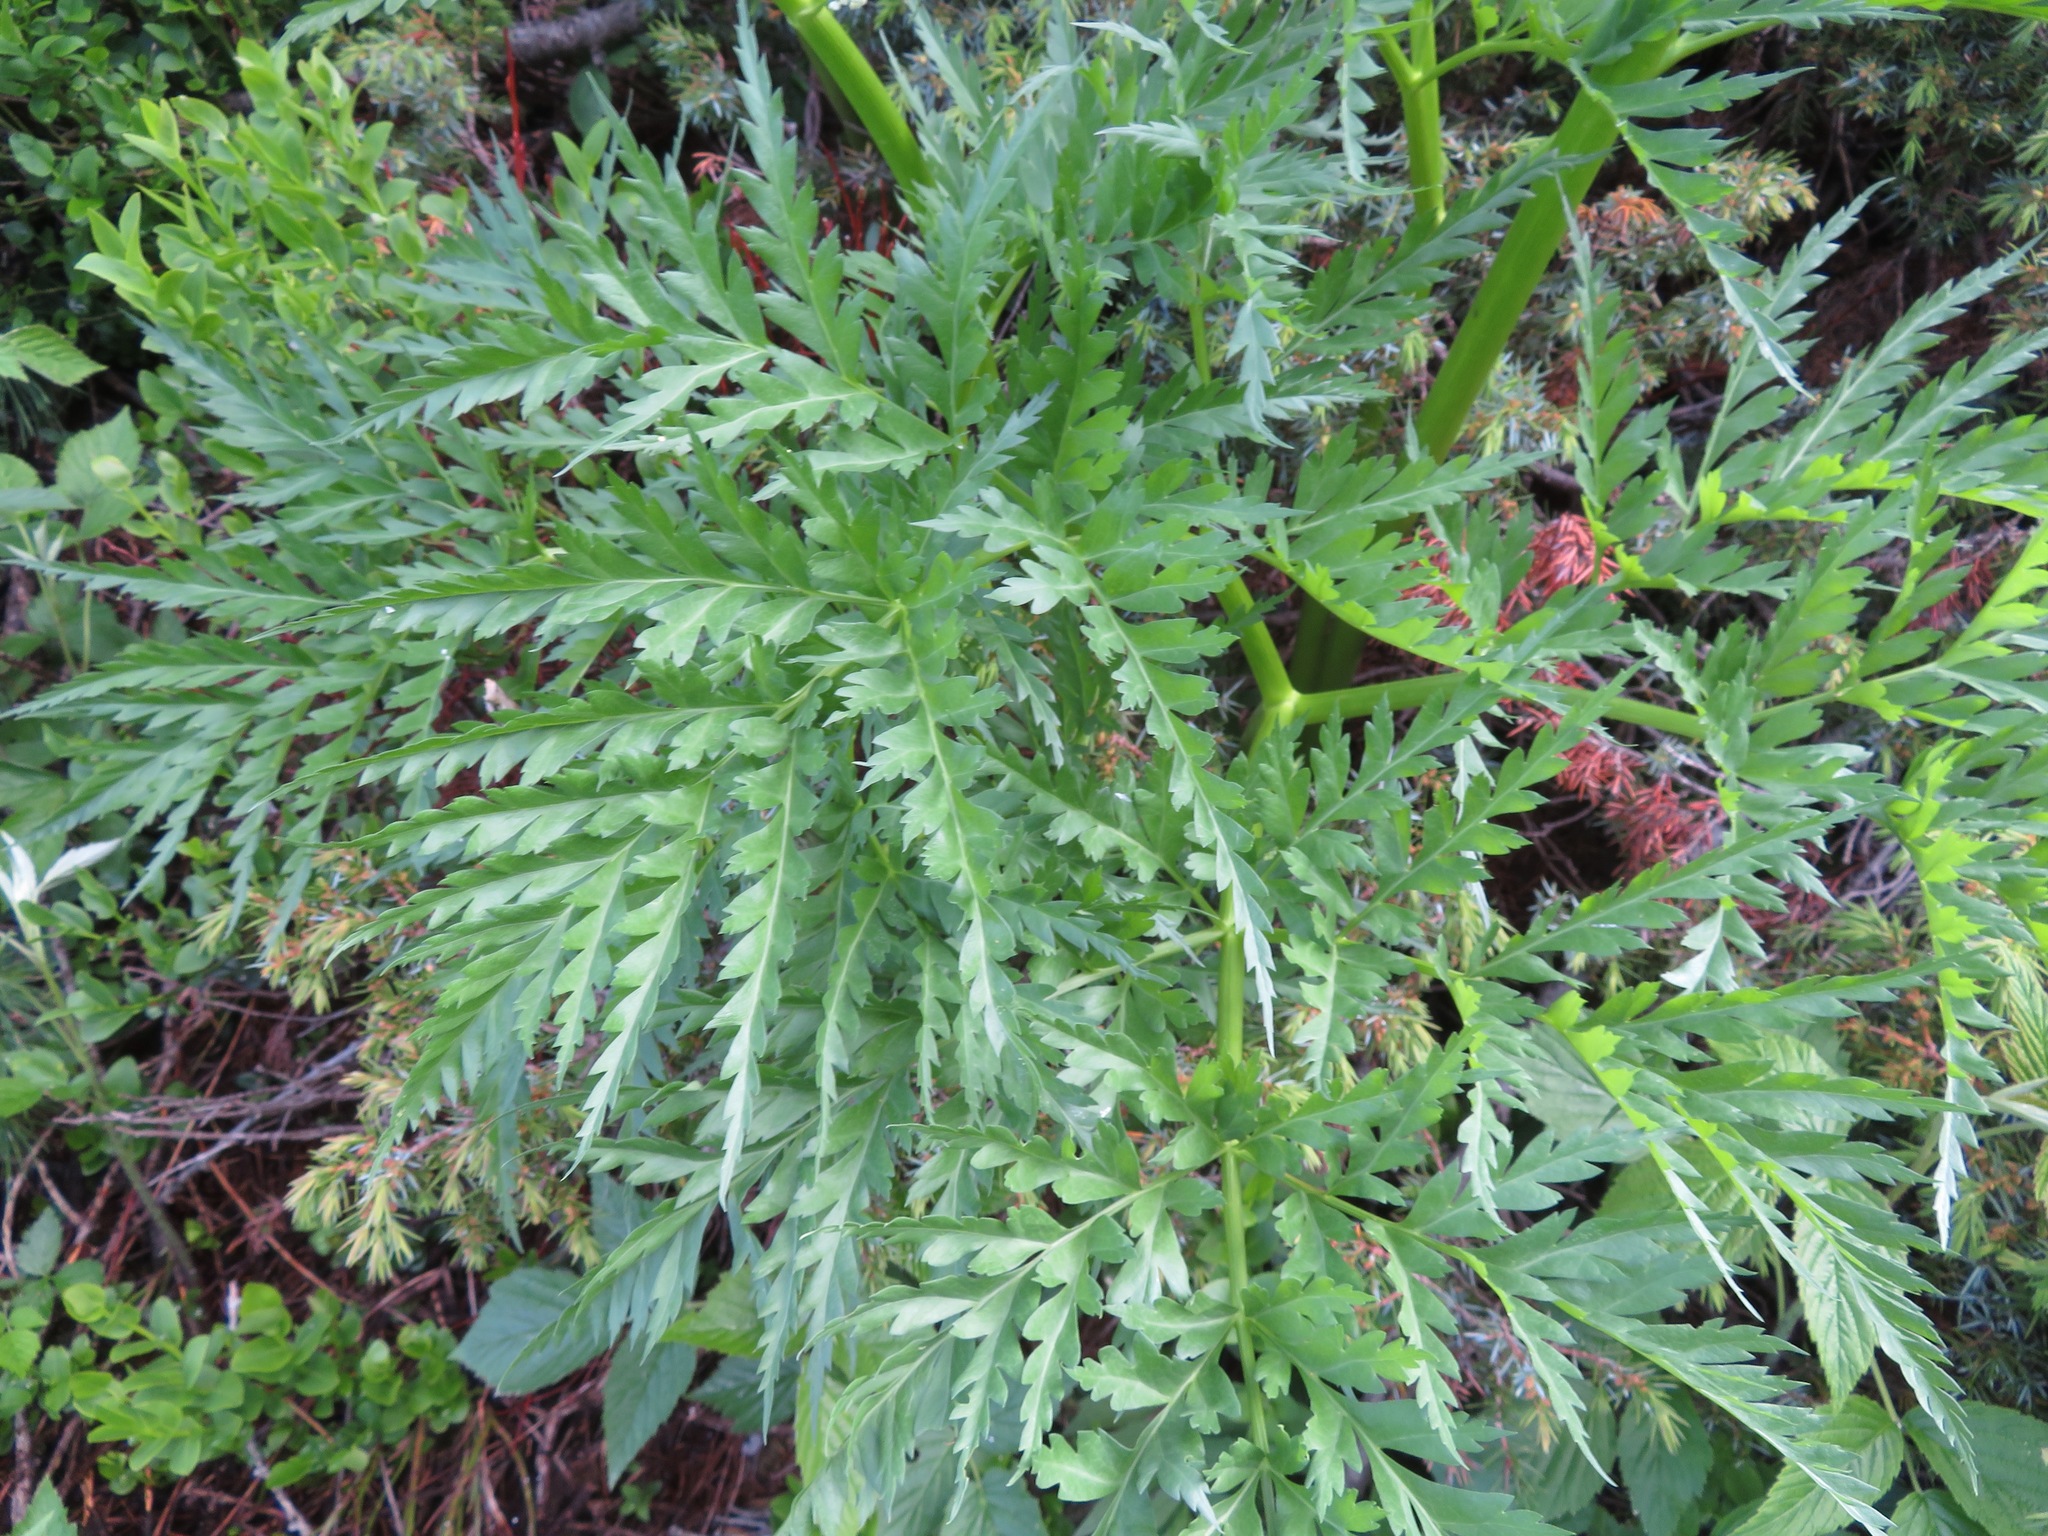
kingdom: Plantae
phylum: Tracheophyta
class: Magnoliopsida
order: Apiales
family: Apiaceae
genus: Molopospermum
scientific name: Molopospermum peloponnesiacum
